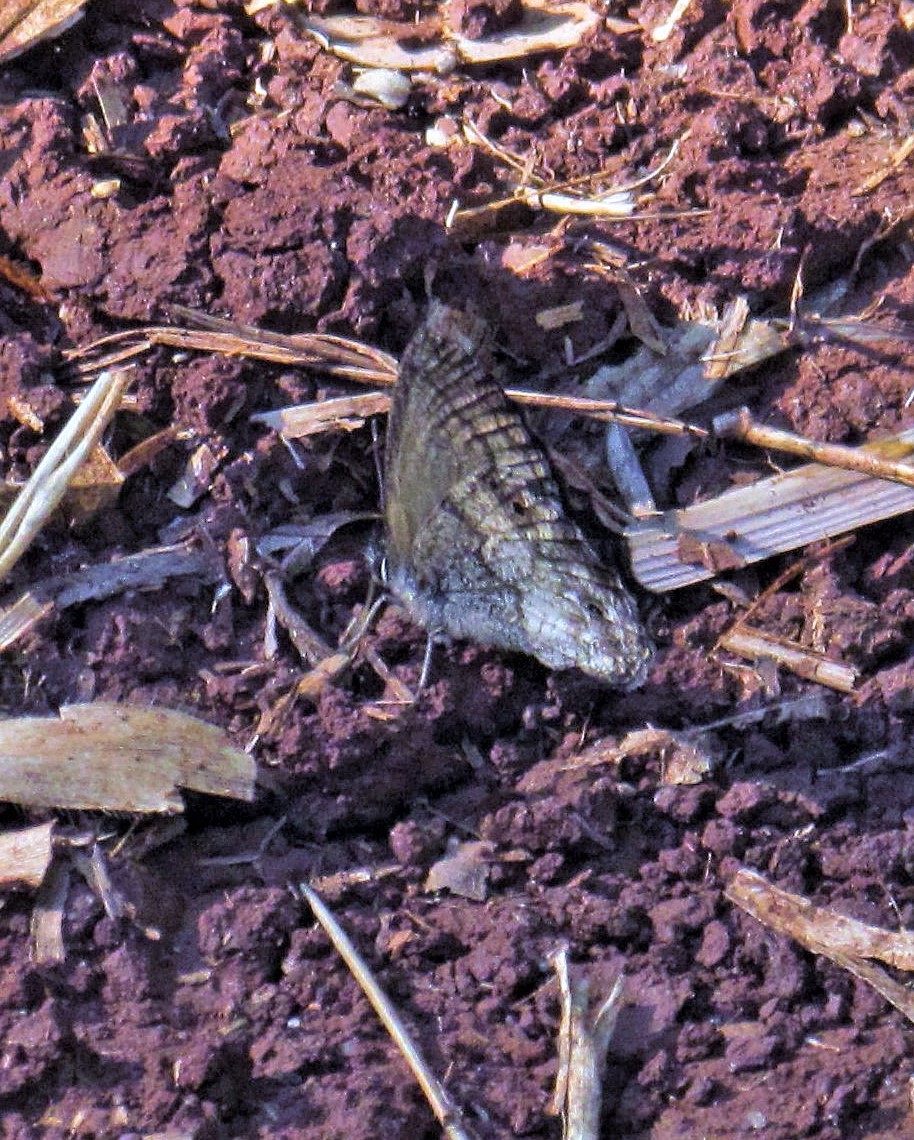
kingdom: Animalia
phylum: Arthropoda
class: Insecta
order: Lepidoptera
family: Nymphalidae
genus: Carminda
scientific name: Carminda griseldis
